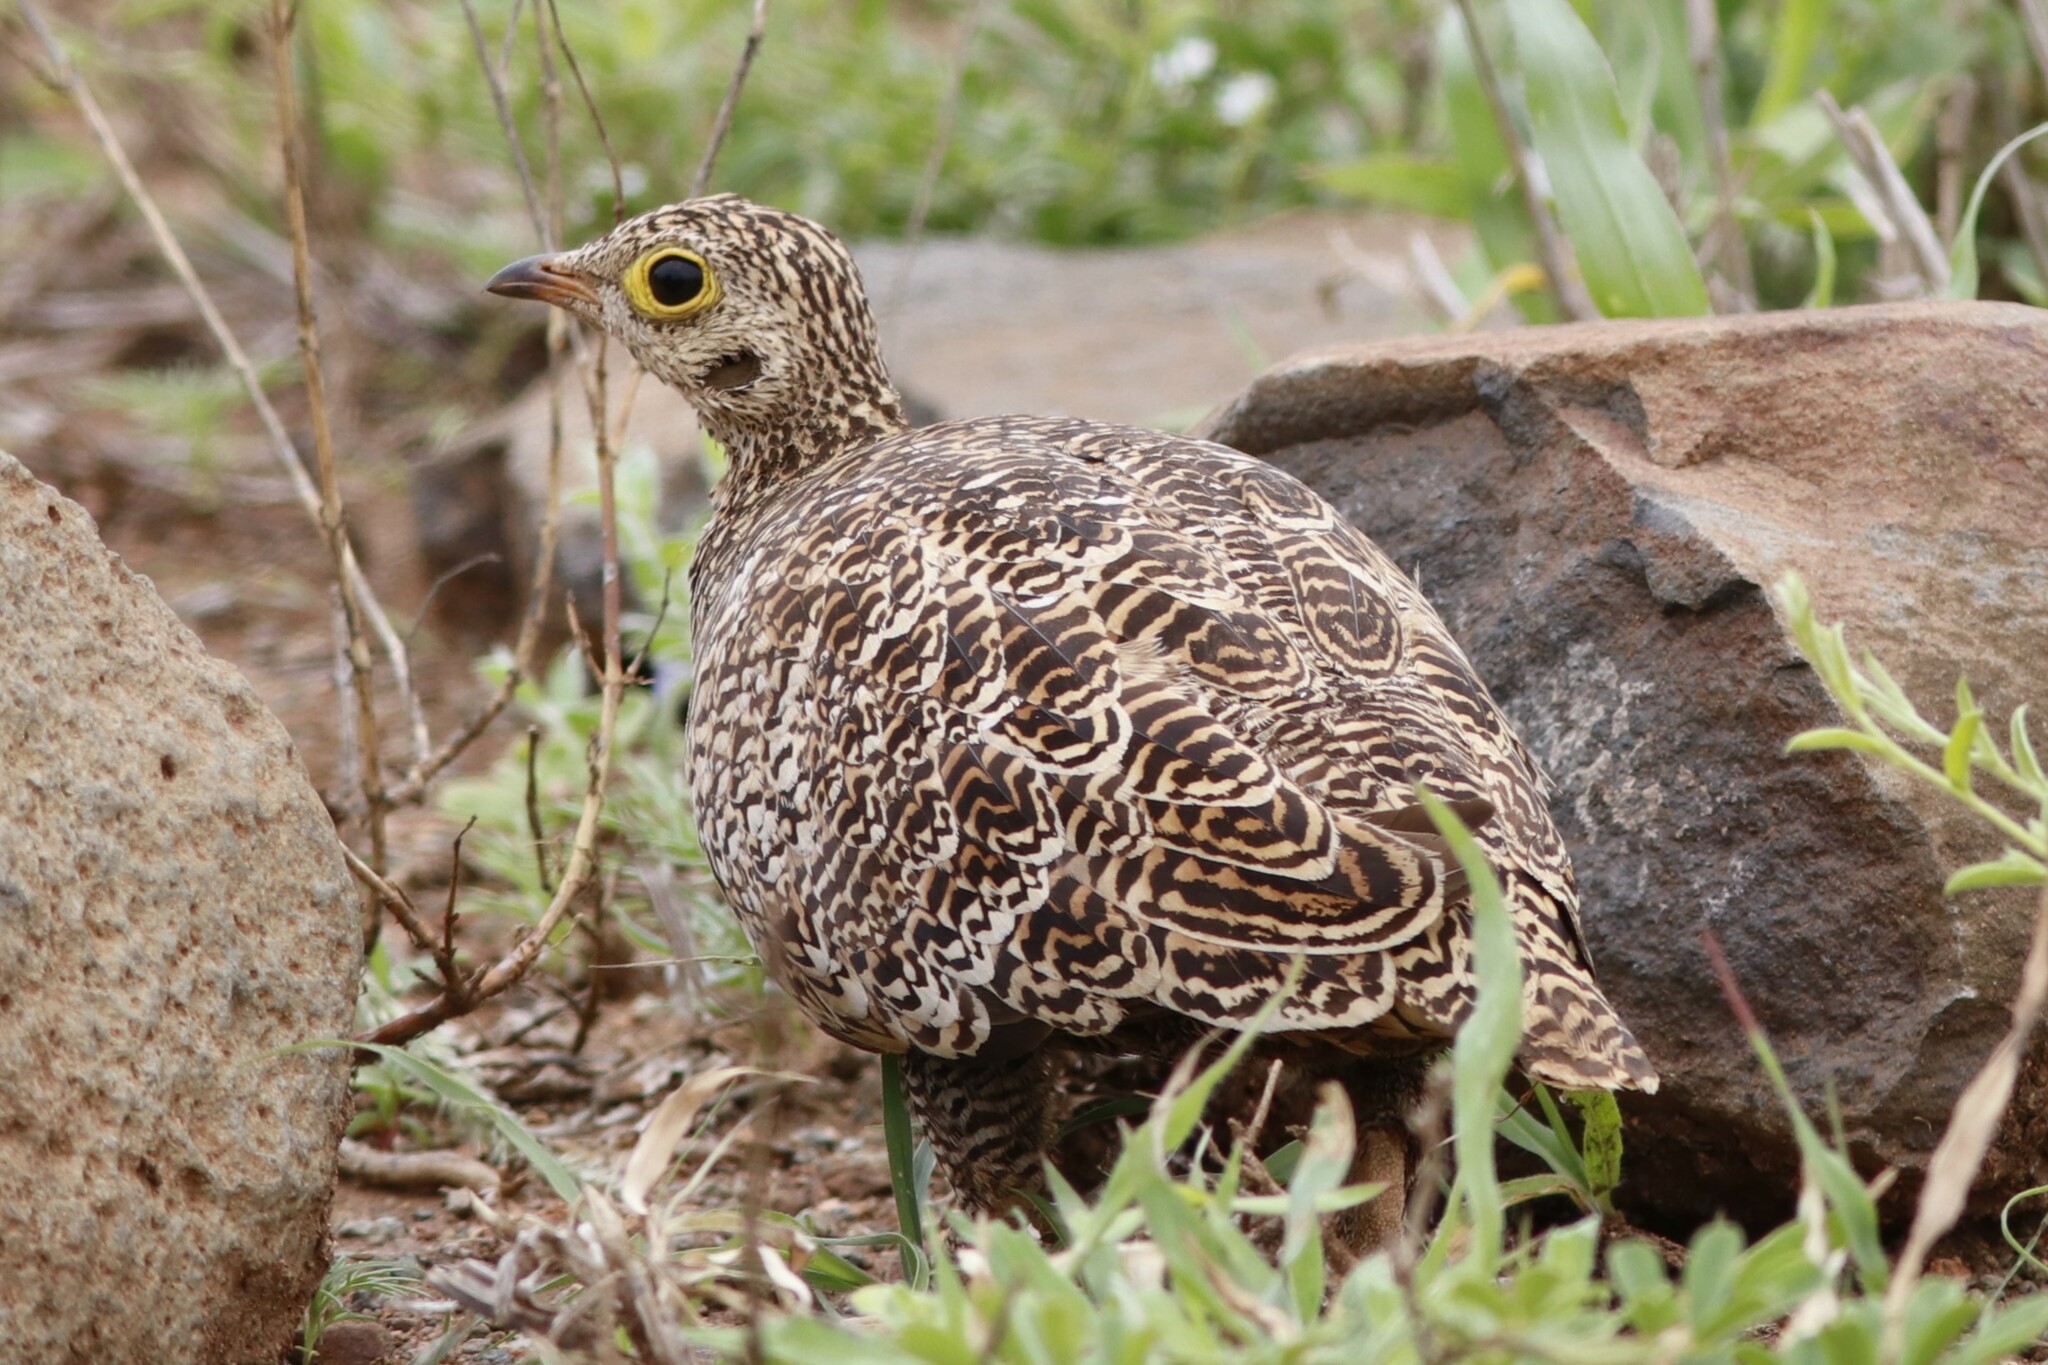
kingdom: Animalia
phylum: Chordata
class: Aves
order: Pteroclidiformes
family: Pteroclididae
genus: Pterocles
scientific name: Pterocles bicinctus
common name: Double-banded sandgrouse
